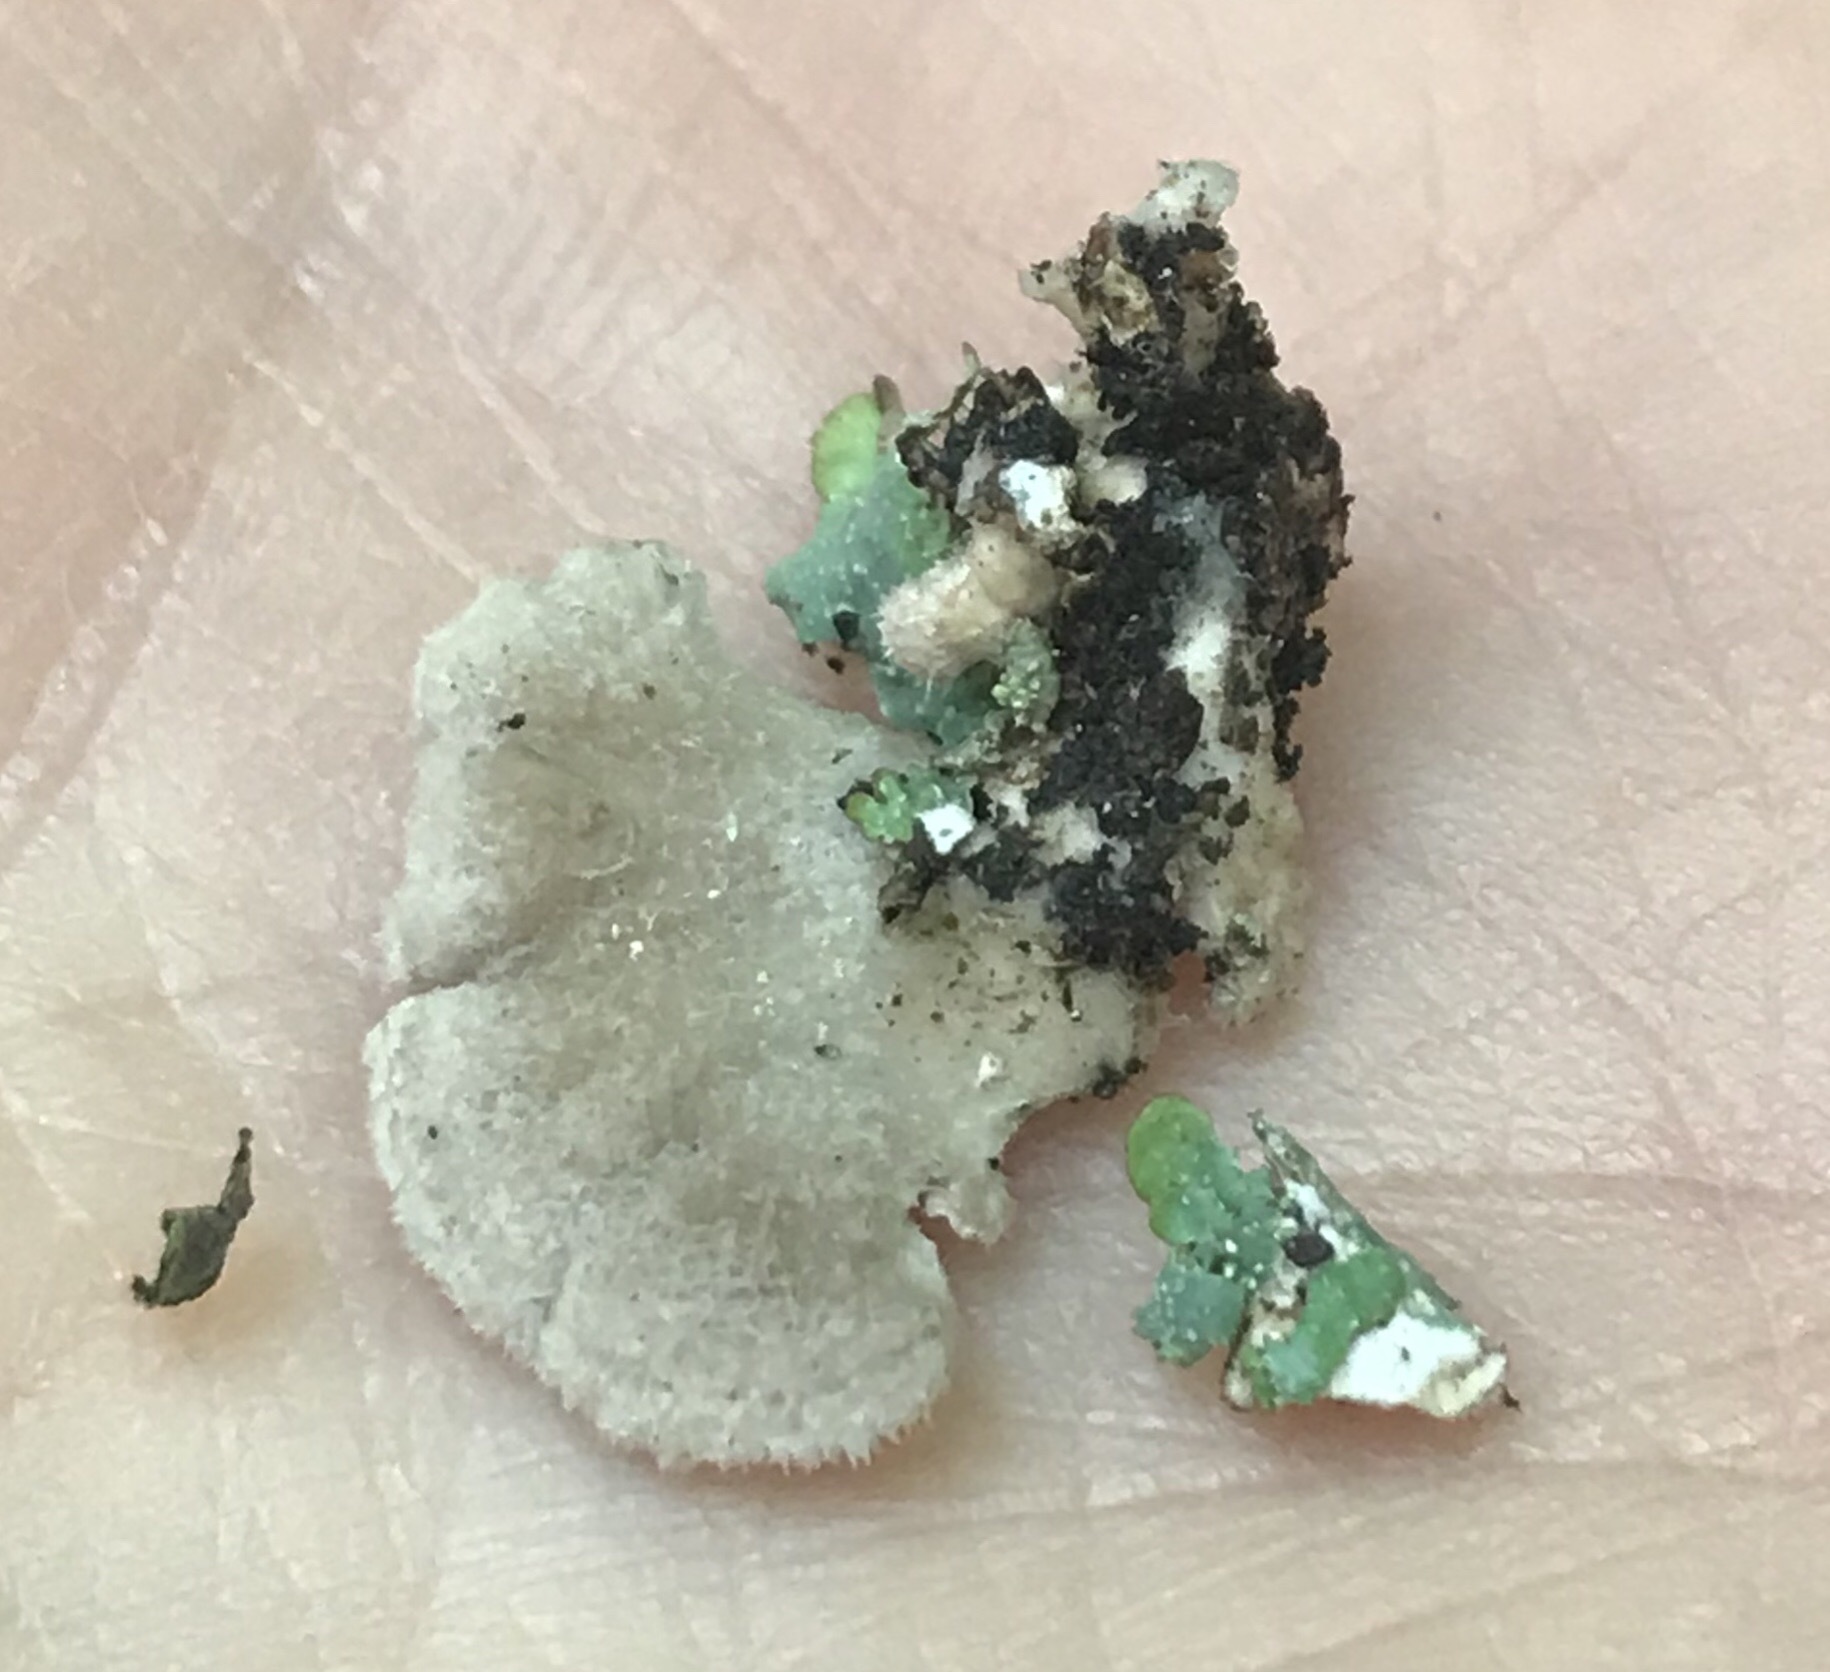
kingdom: Fungi
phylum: Basidiomycota
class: Agaricomycetes
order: Agaricales
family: Schizophyllaceae
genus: Schizophyllum
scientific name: Schizophyllum commune
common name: Common porecrust
